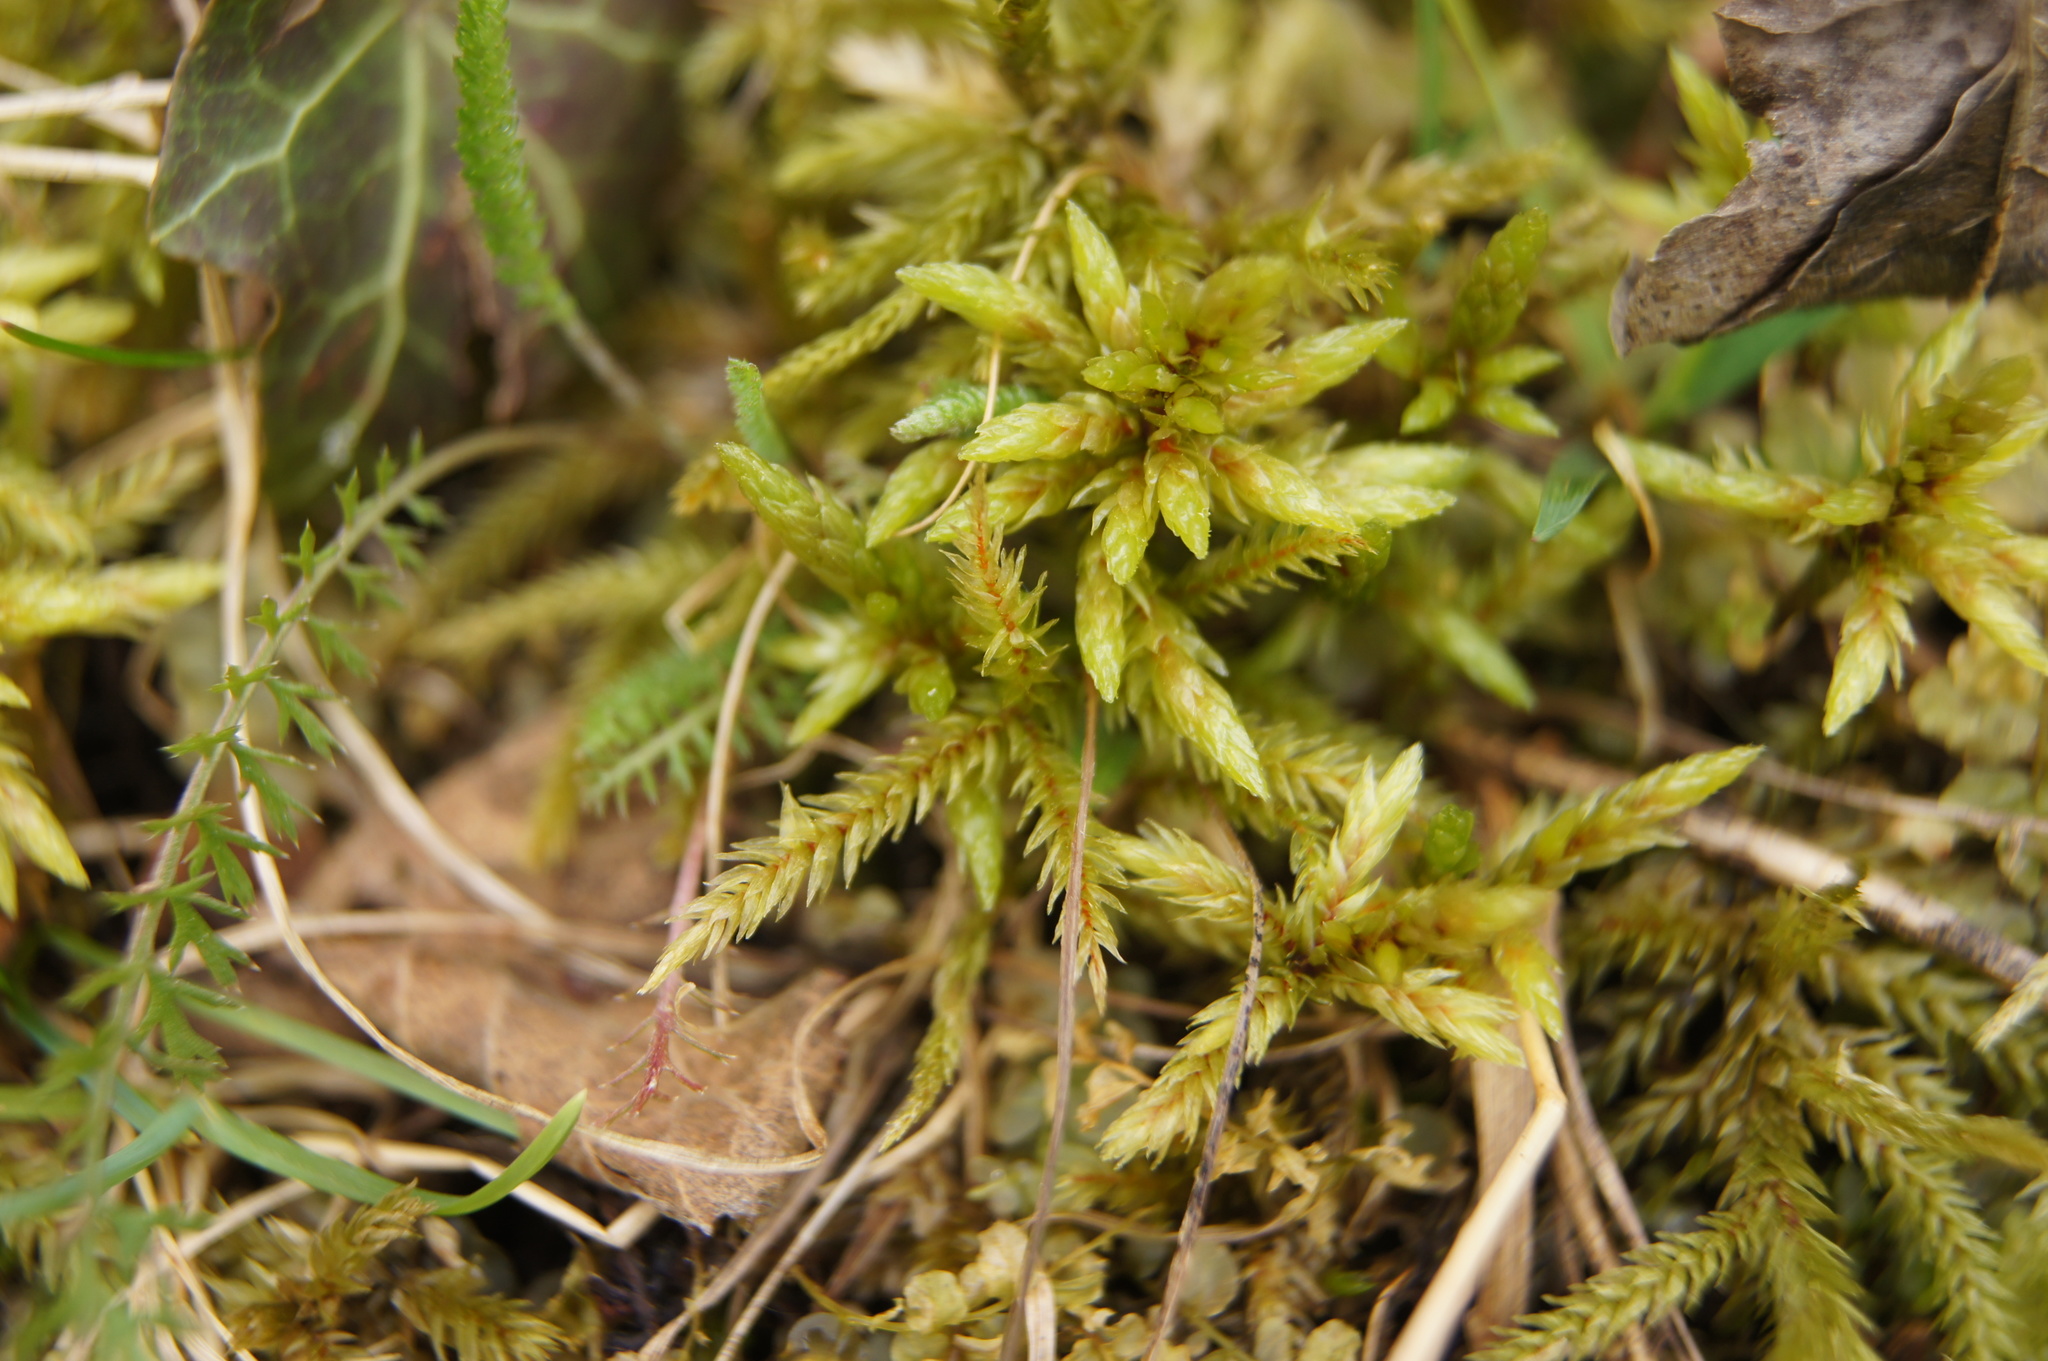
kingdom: Plantae
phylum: Bryophyta
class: Bryopsida
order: Hypnales
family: Climaciaceae
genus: Climacium
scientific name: Climacium dendroides
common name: Northern tree moss
